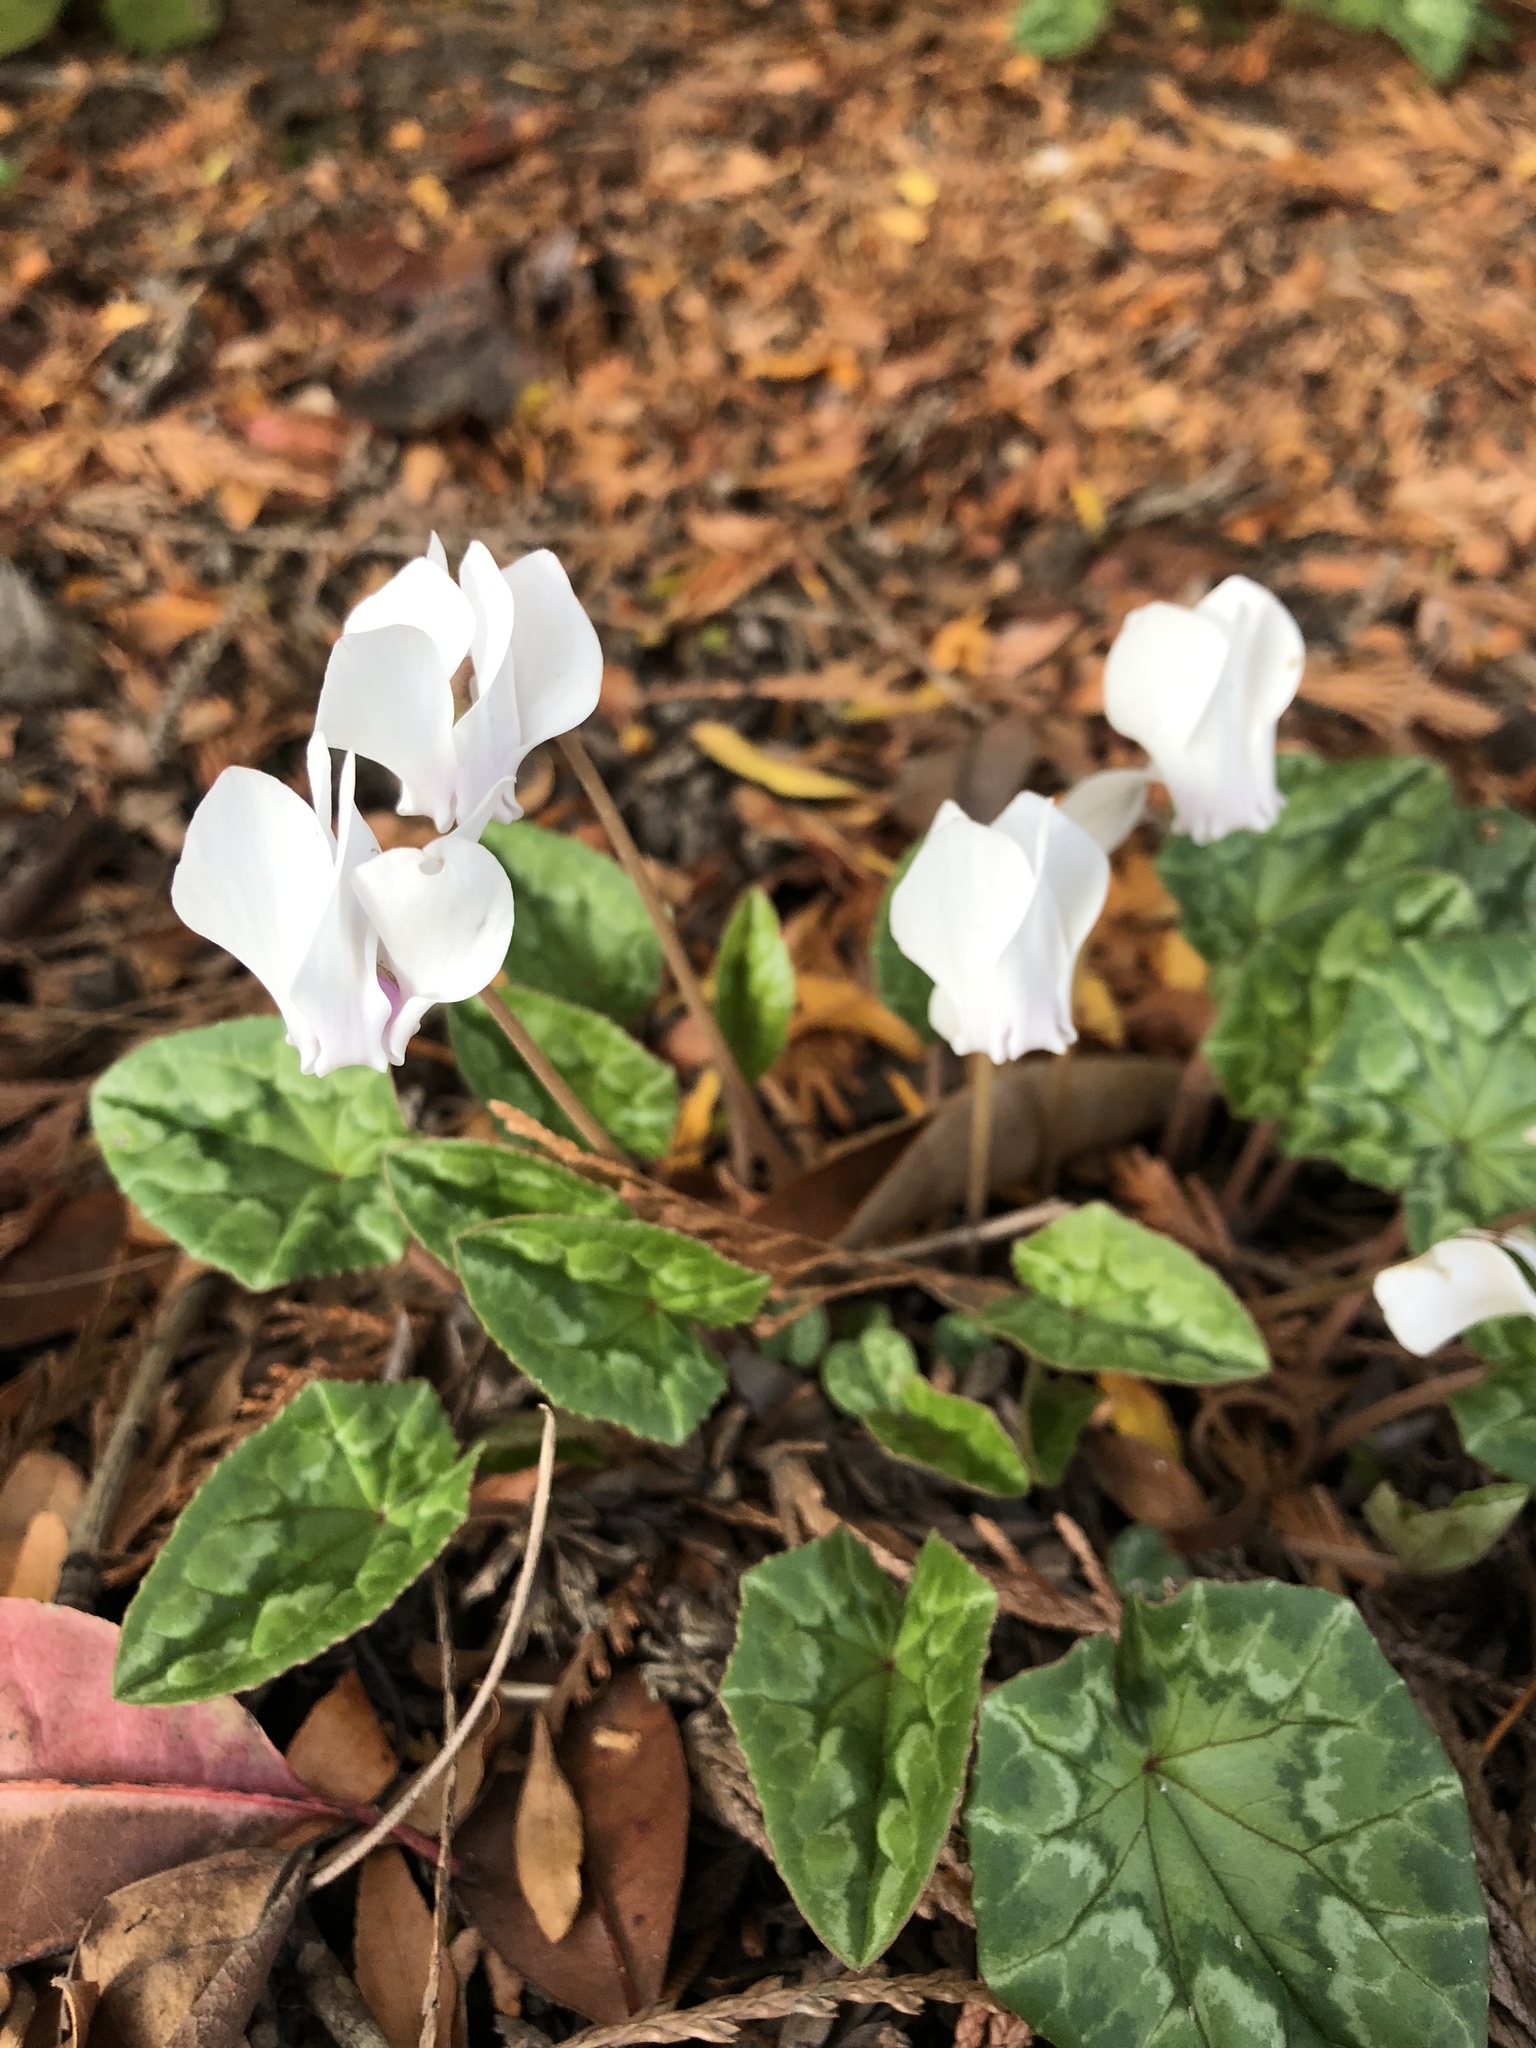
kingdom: Plantae
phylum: Tracheophyta
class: Magnoliopsida
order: Ericales
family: Primulaceae
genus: Cyclamen
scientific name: Cyclamen hederifolium
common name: Sowbread
